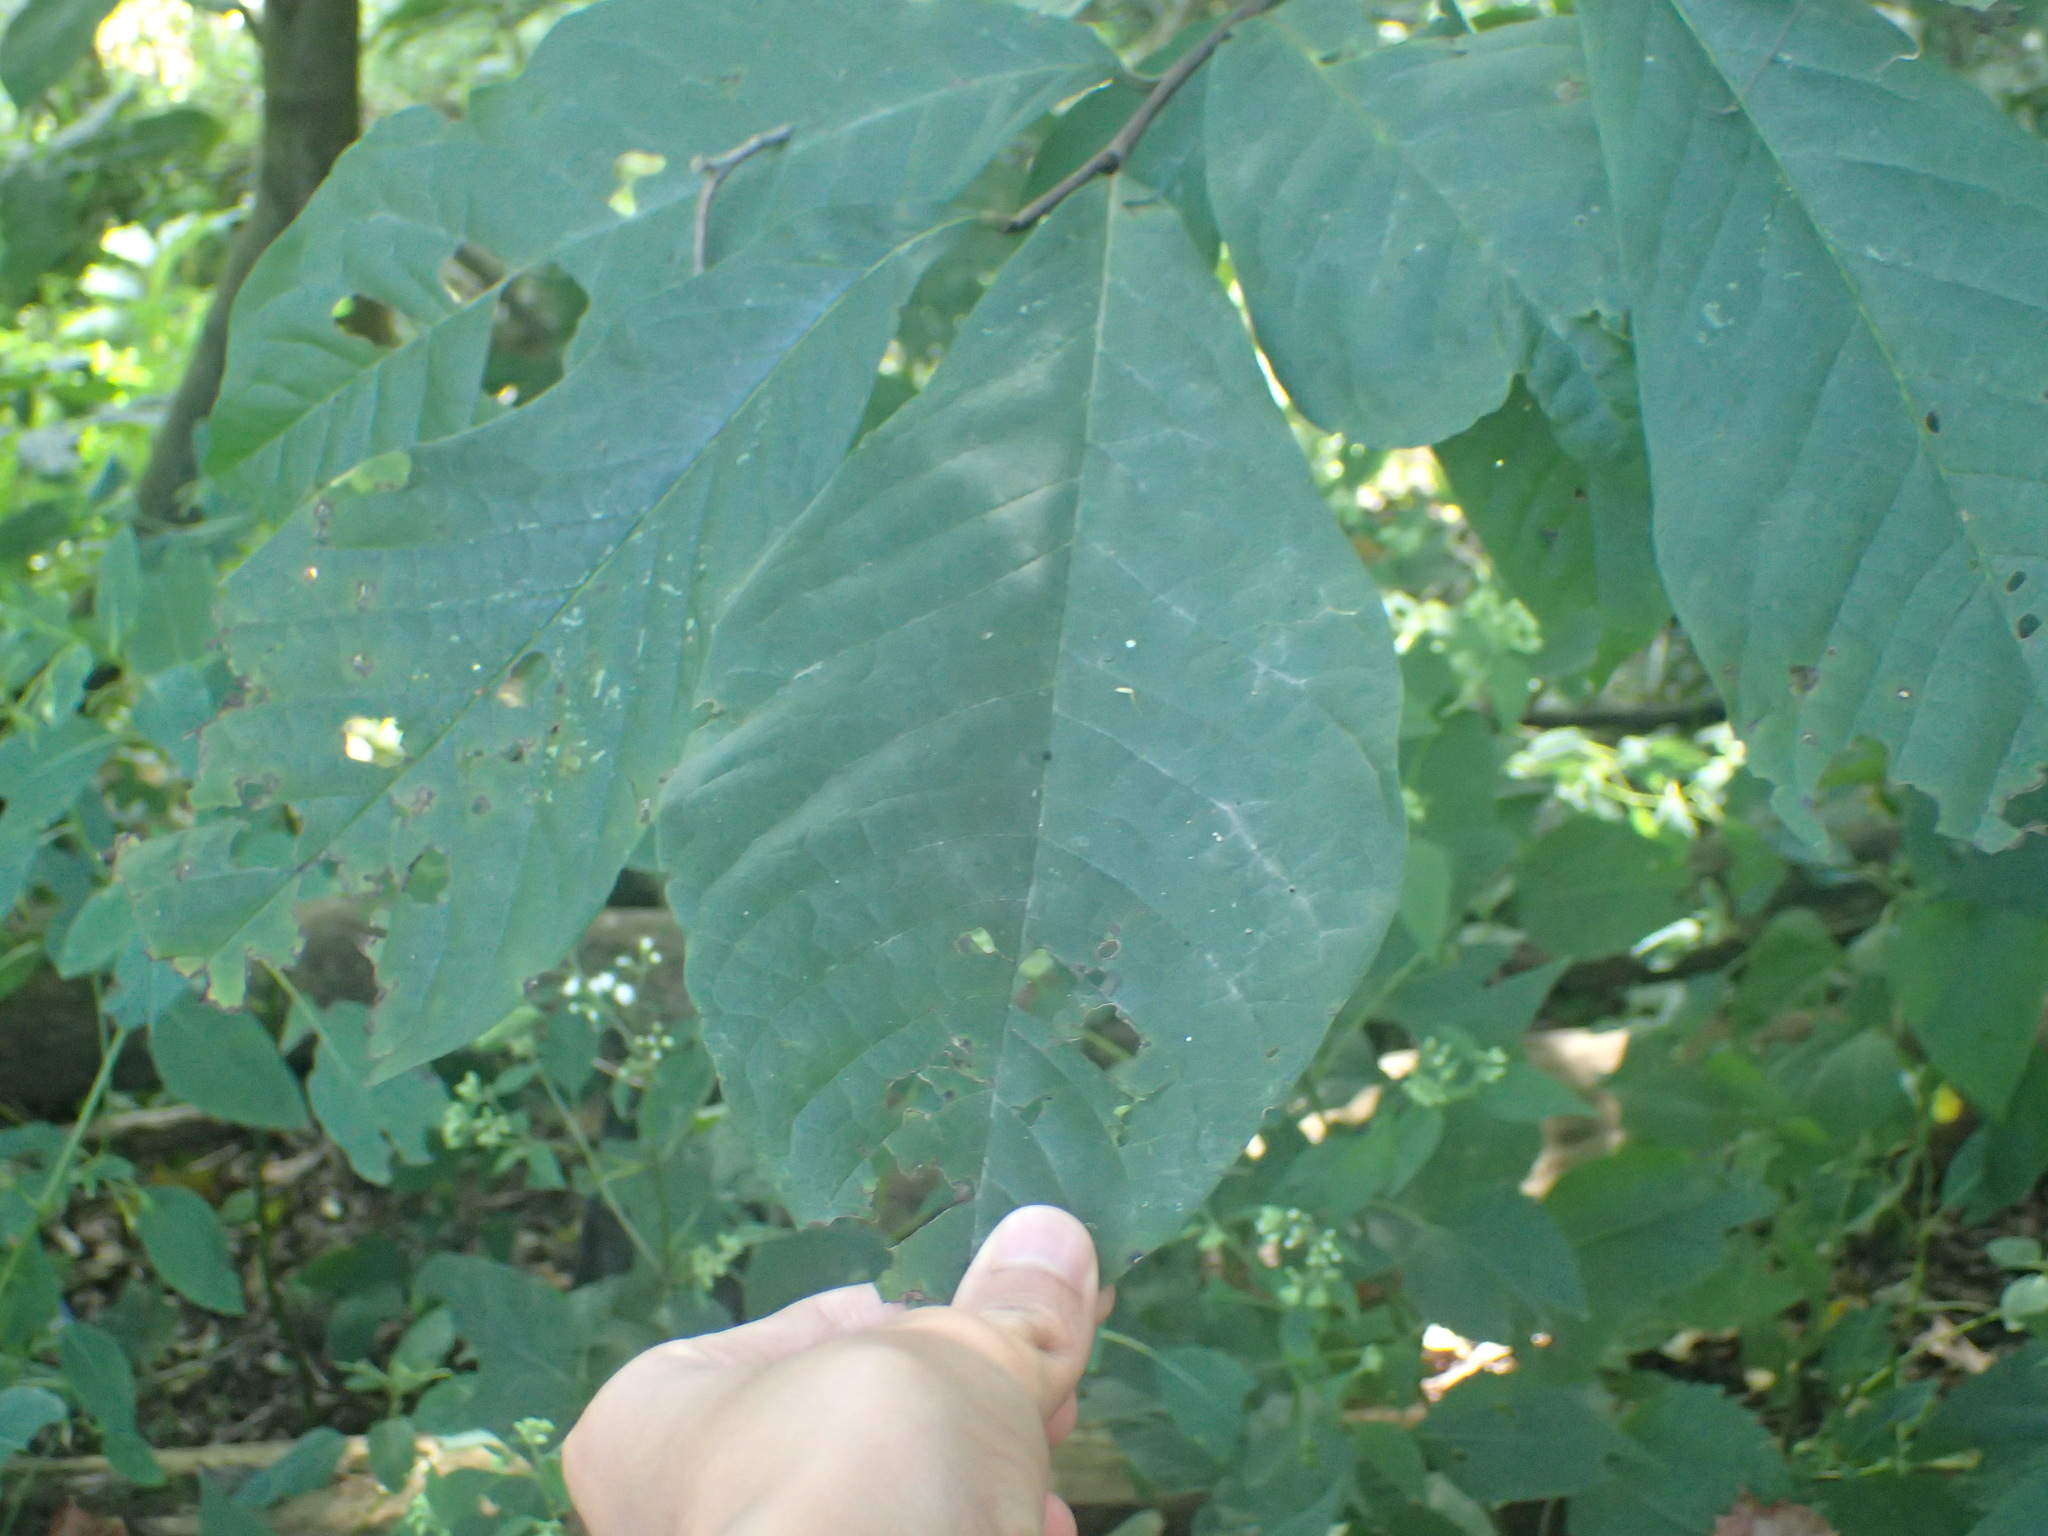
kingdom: Plantae
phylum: Tracheophyta
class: Magnoliopsida
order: Magnoliales
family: Annonaceae
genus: Asimina
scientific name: Asimina triloba
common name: Dog-banana
